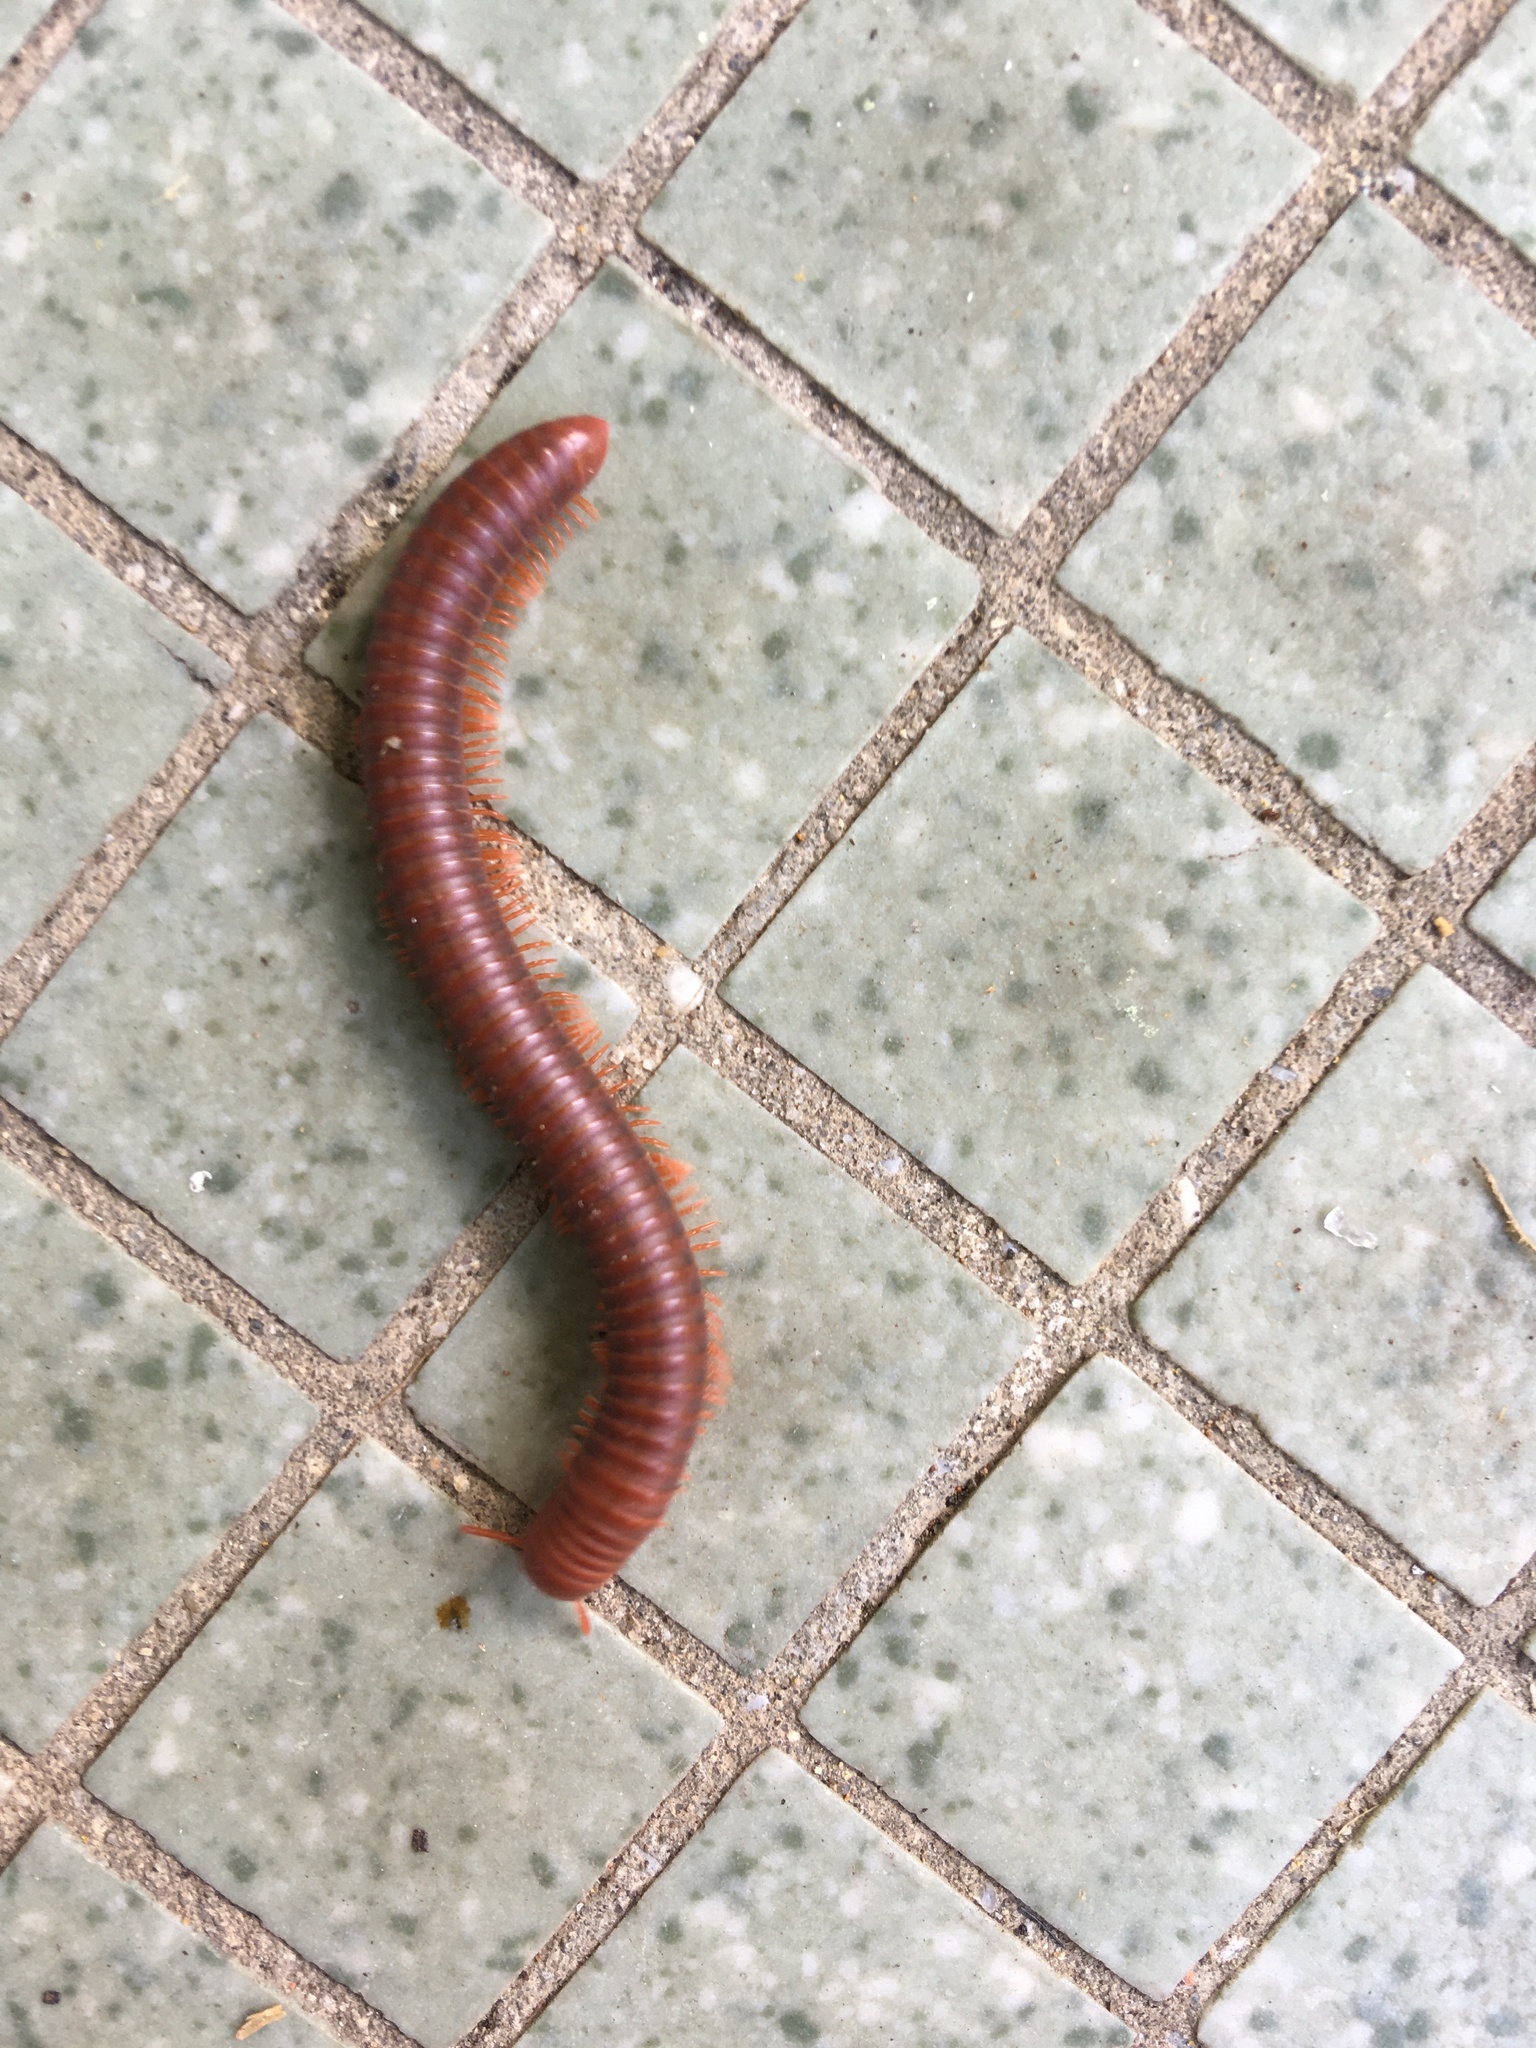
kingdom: Animalia
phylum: Arthropoda
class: Diplopoda
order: Spirobolida
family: Pachybolidae
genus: Trigoniulus
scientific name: Trigoniulus corallinus
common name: Millipede
